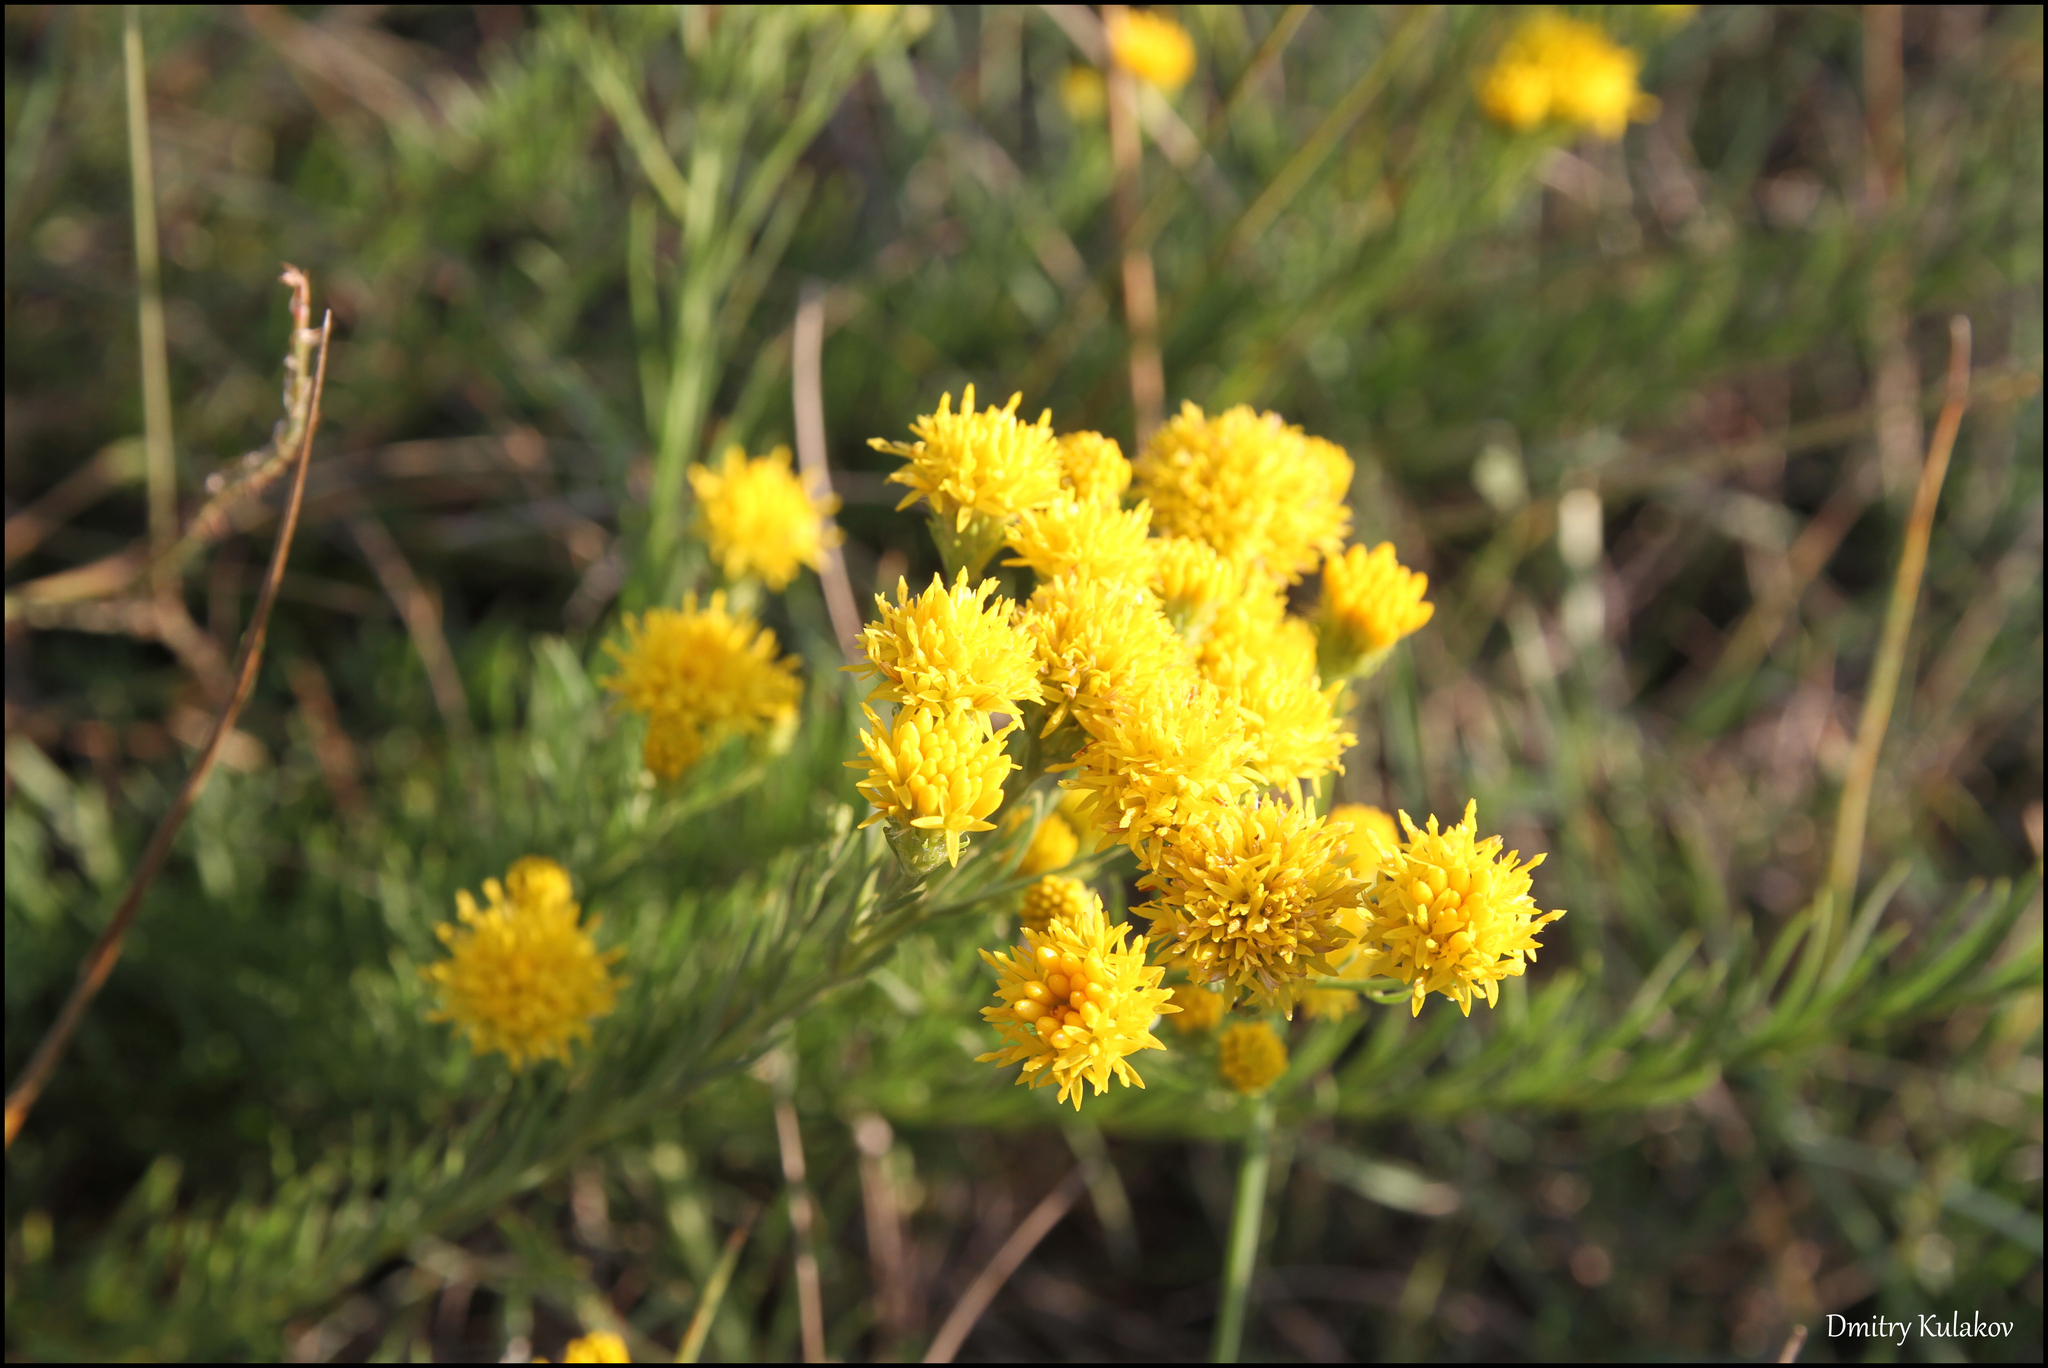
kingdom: Plantae
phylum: Tracheophyta
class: Magnoliopsida
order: Asterales
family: Asteraceae
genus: Galatella
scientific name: Galatella linosyris
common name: Goldilocks aster
